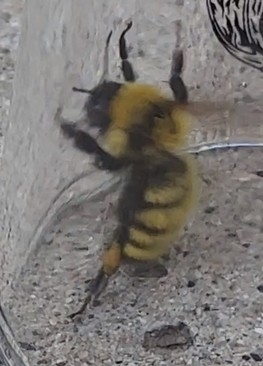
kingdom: Animalia
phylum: Arthropoda
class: Insecta
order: Hymenoptera
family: Apidae
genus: Bombus
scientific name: Bombus fervidus
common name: Yellow bumble bee
